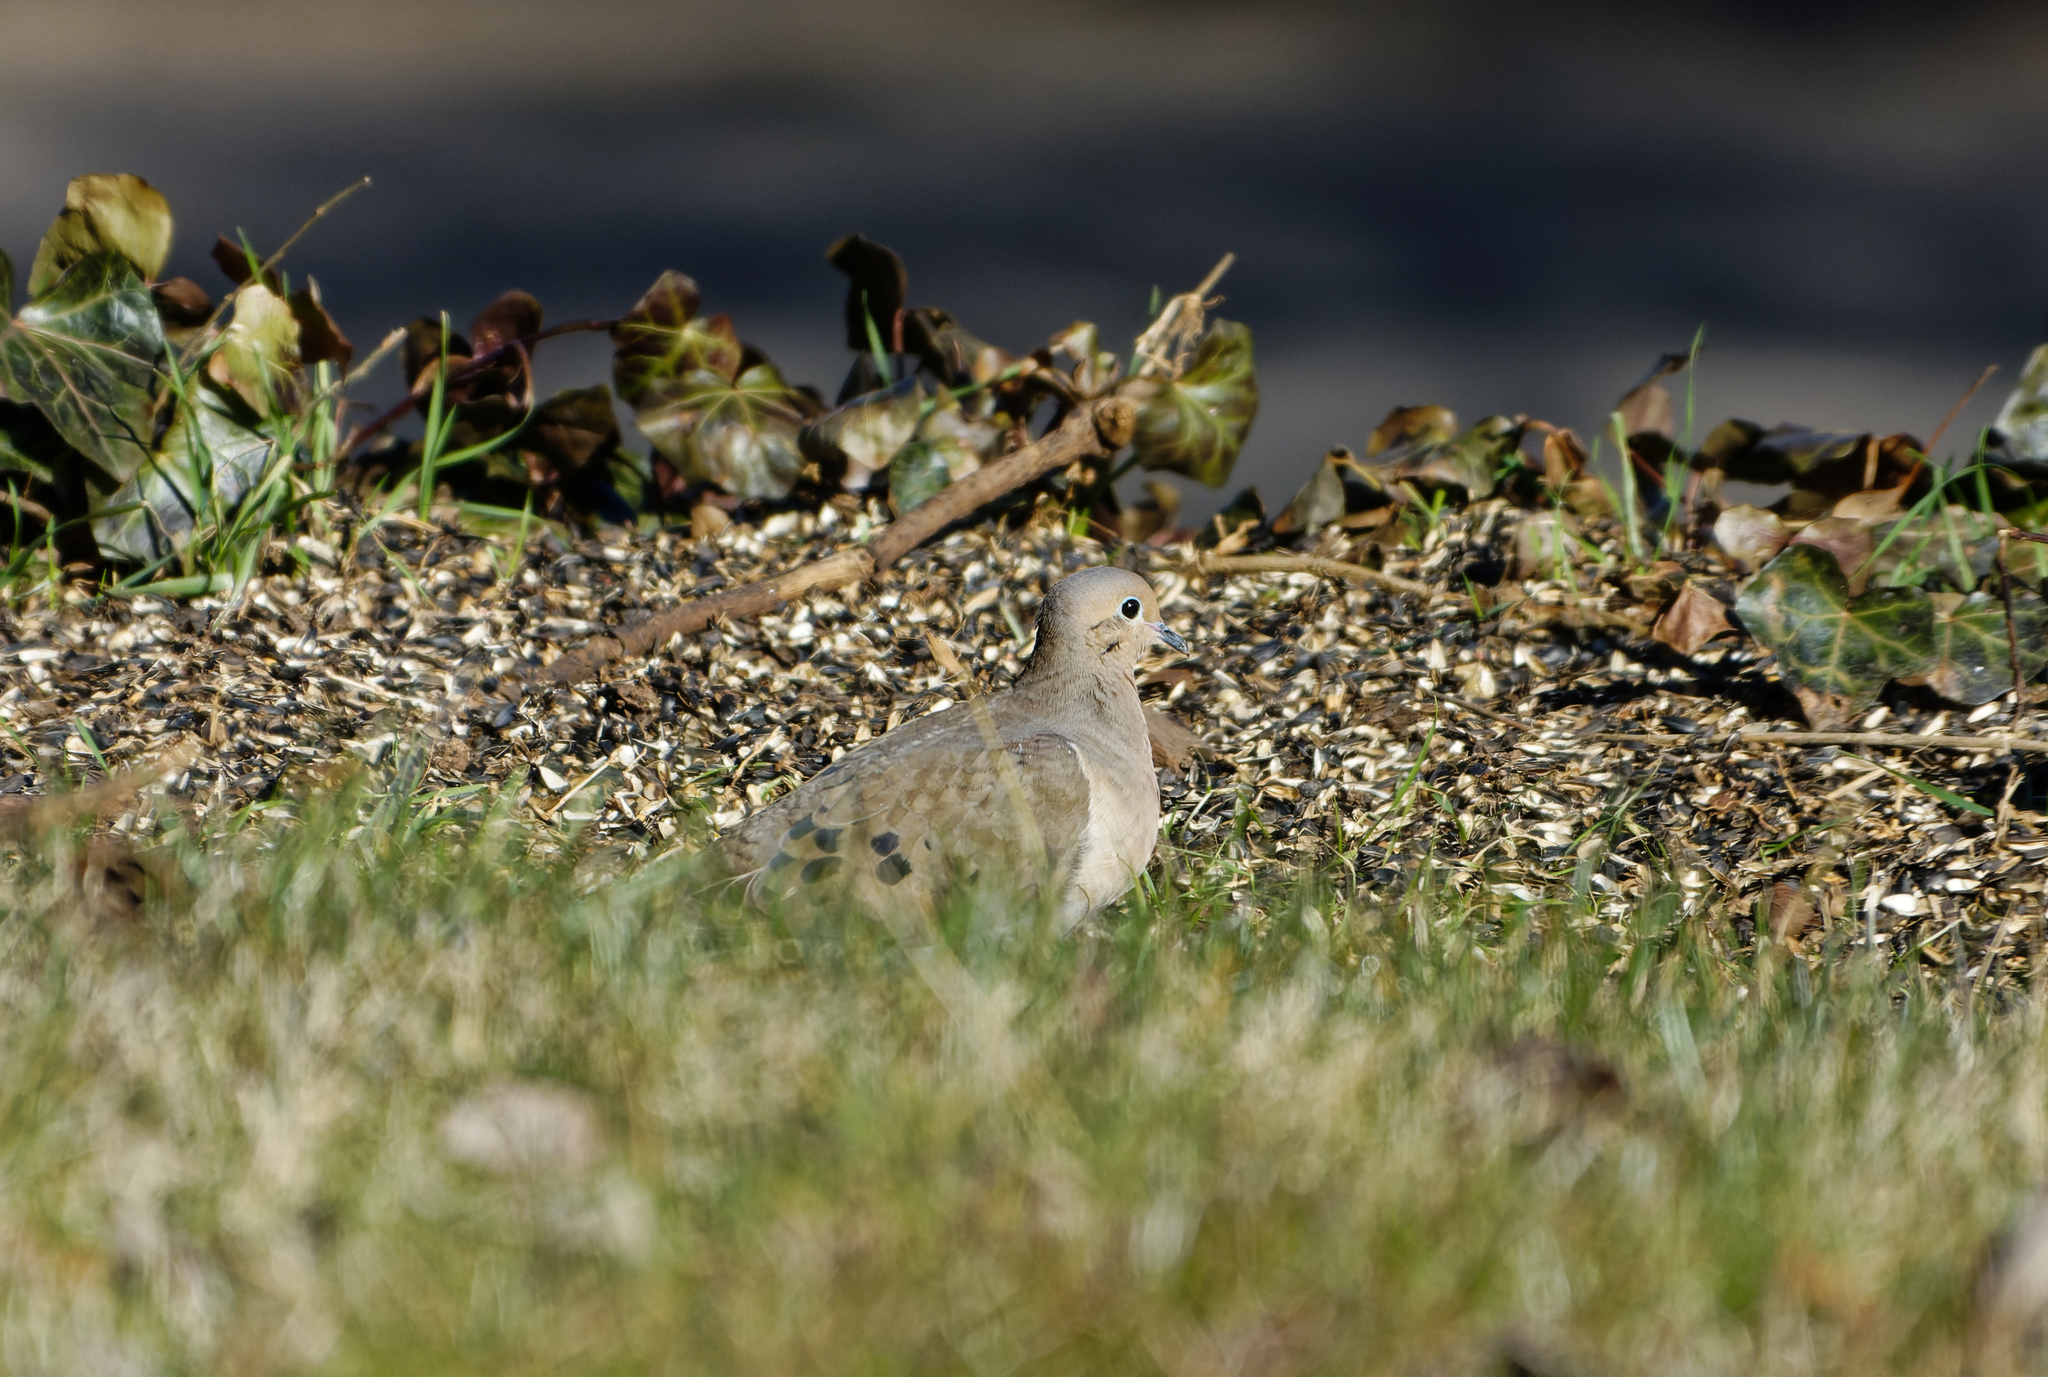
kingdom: Animalia
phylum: Chordata
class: Aves
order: Columbiformes
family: Columbidae
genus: Zenaida
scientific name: Zenaida macroura
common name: Mourning dove
